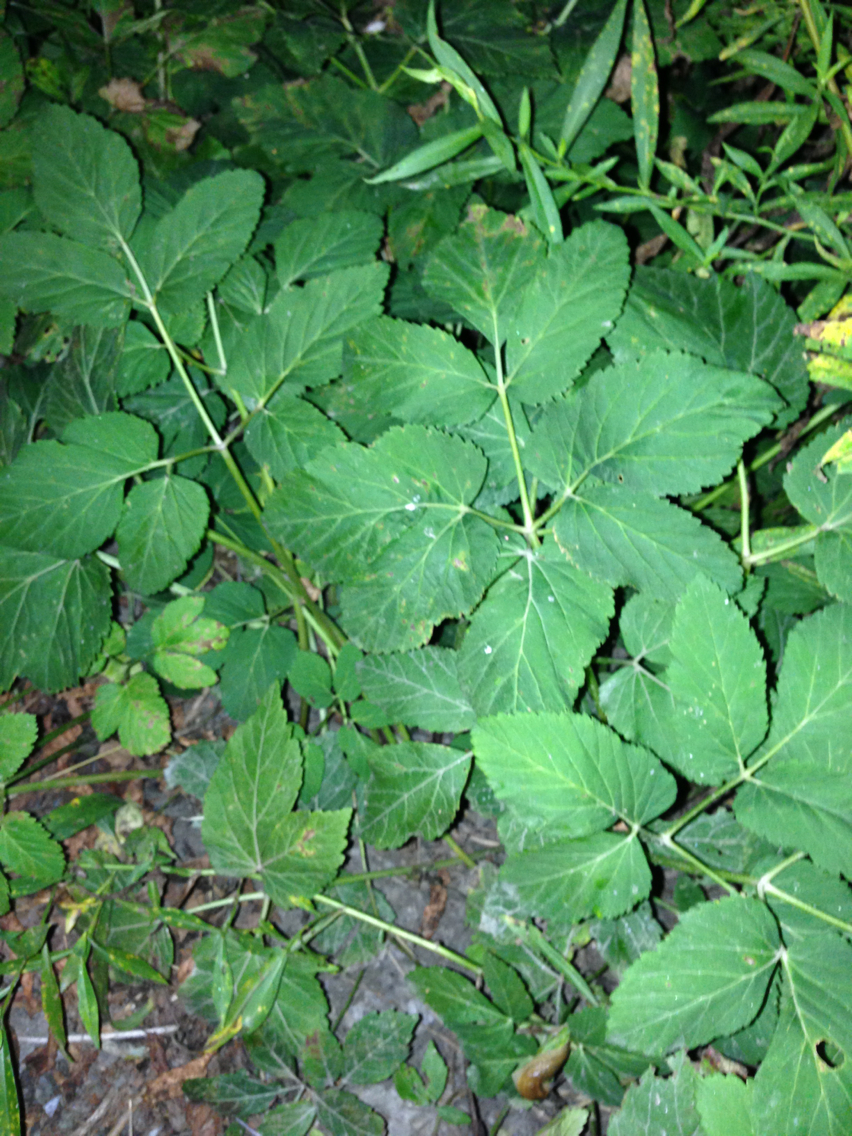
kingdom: Plantae
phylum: Tracheophyta
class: Magnoliopsida
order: Apiales
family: Apiaceae
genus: Aegopodium
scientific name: Aegopodium podagraria
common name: Ground-elder
